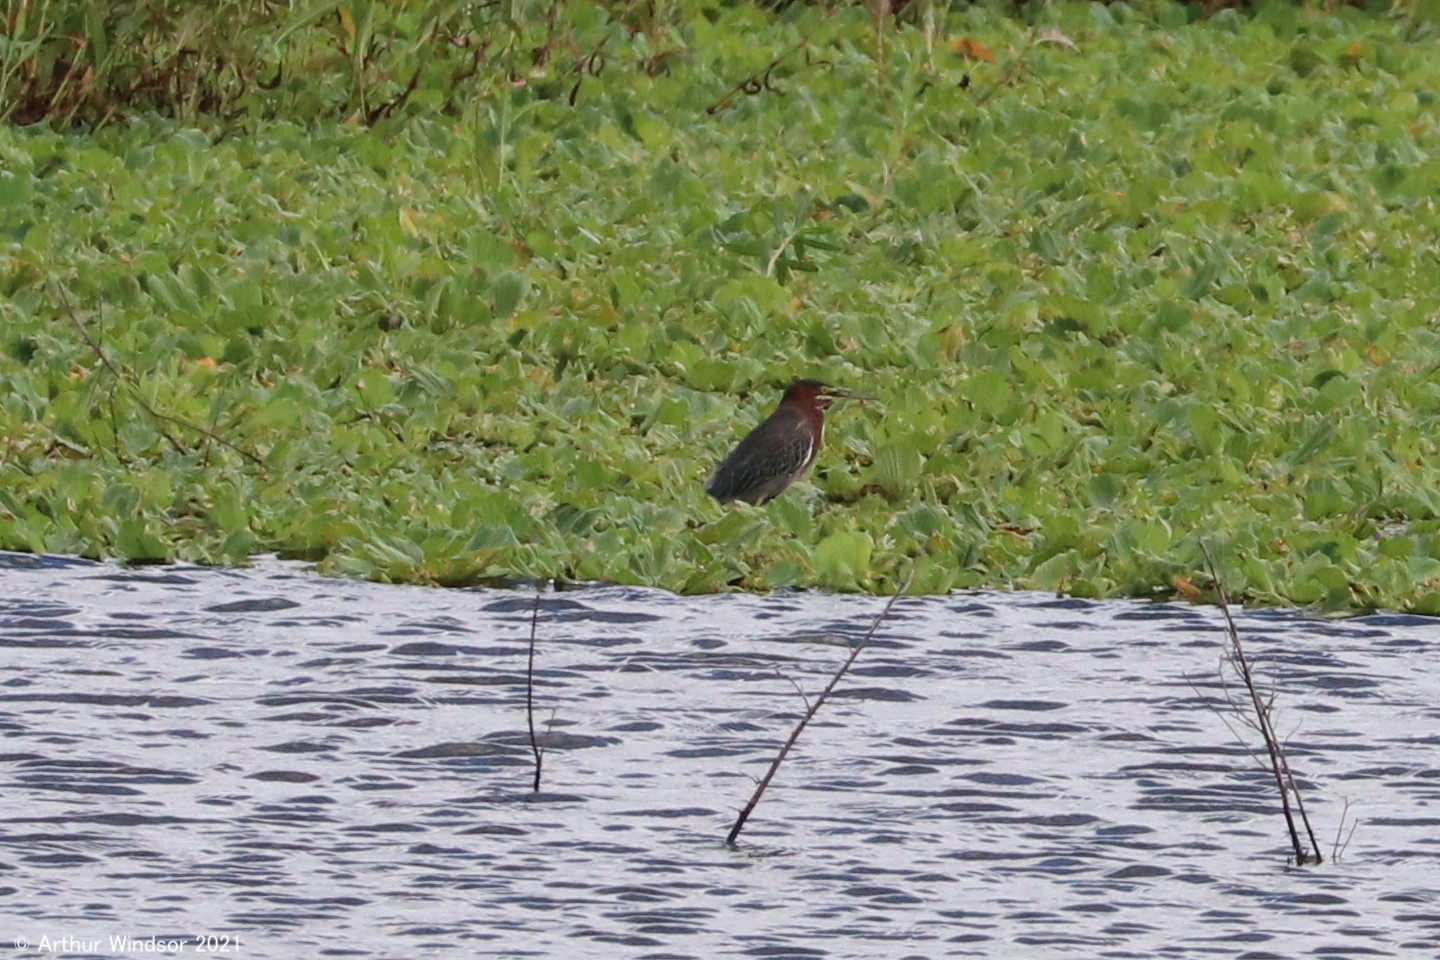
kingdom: Animalia
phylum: Chordata
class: Aves
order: Pelecaniformes
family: Ardeidae
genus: Butorides
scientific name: Butorides virescens
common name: Green heron
